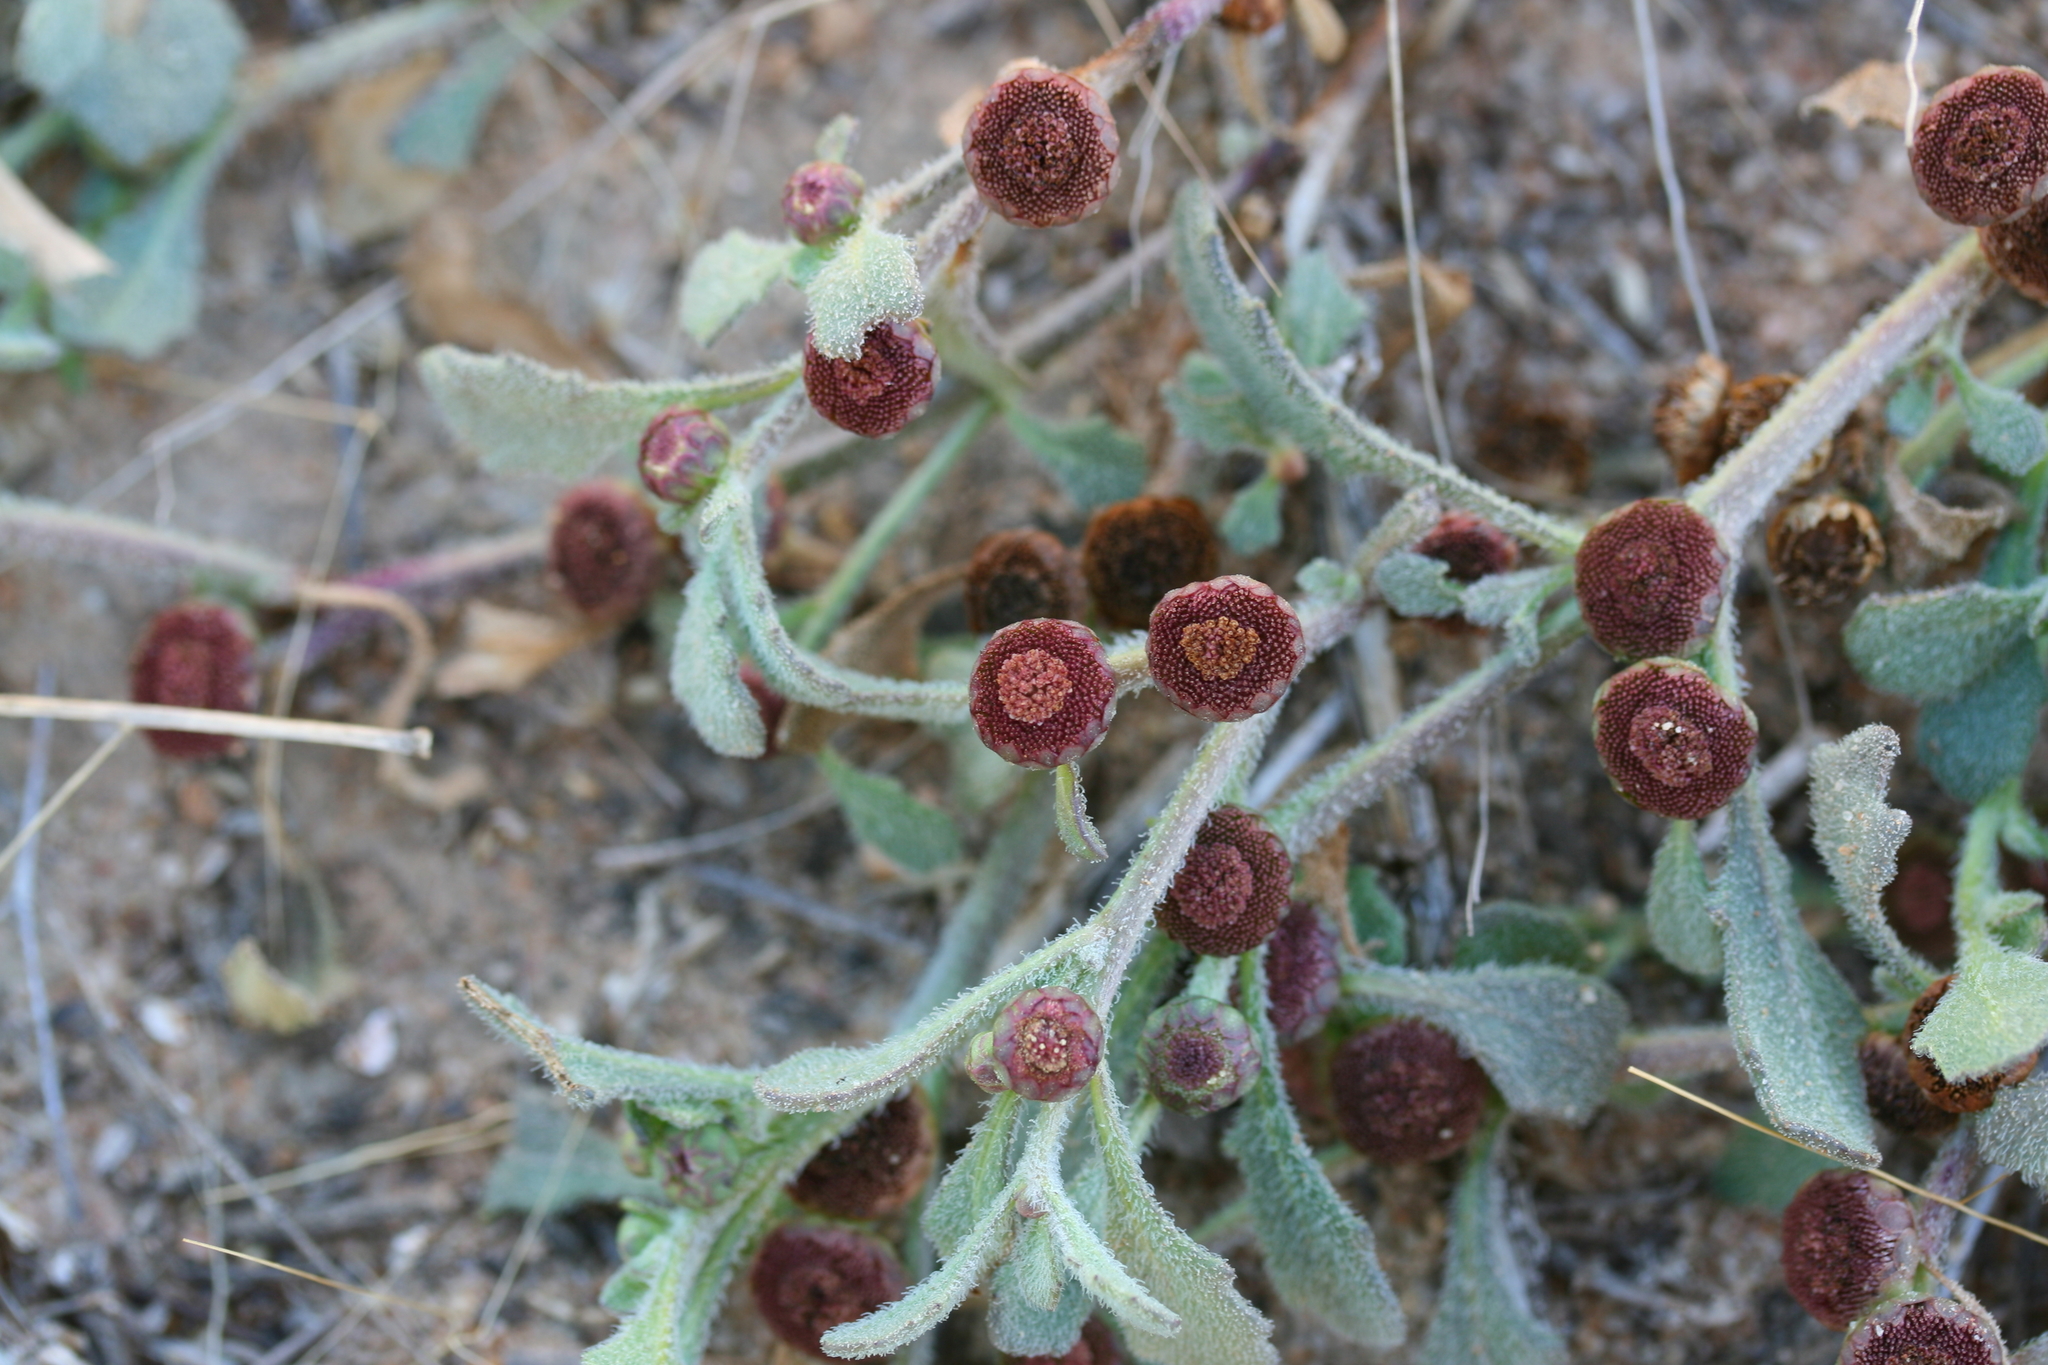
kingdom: Plantae
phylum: Tracheophyta
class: Magnoliopsida
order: Asterales
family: Asteraceae
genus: Sphaeromorphaea
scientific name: Sphaeromorphaea australis
